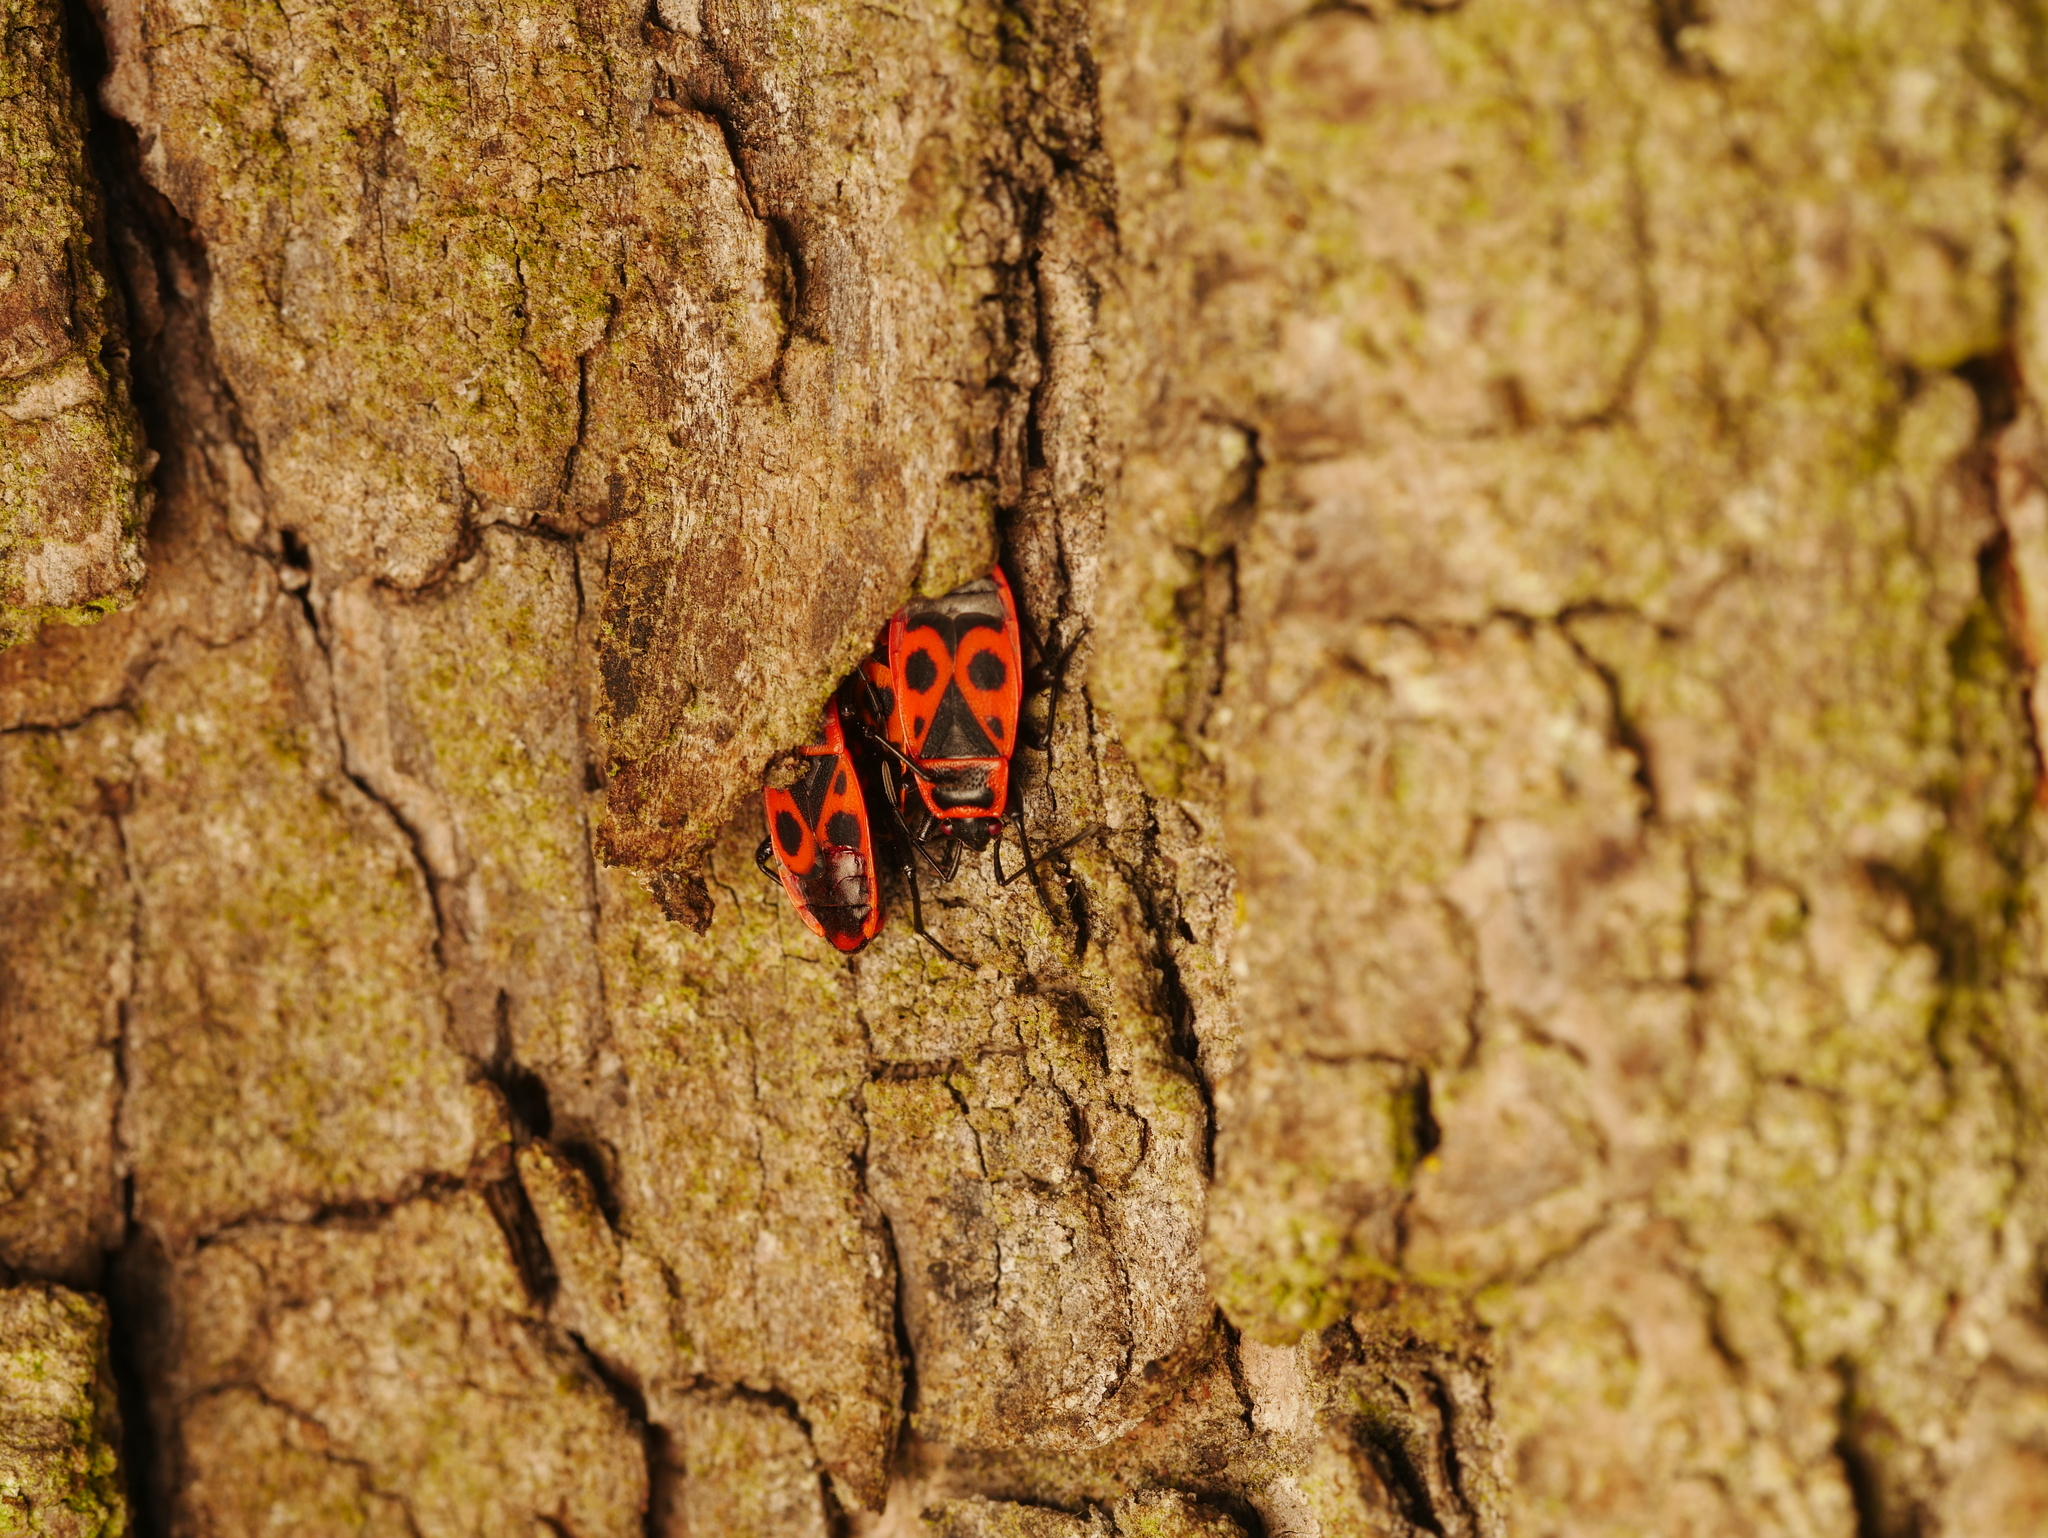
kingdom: Animalia
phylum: Arthropoda
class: Insecta
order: Hemiptera
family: Pyrrhocoridae
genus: Pyrrhocoris
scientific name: Pyrrhocoris apterus
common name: Firebug
